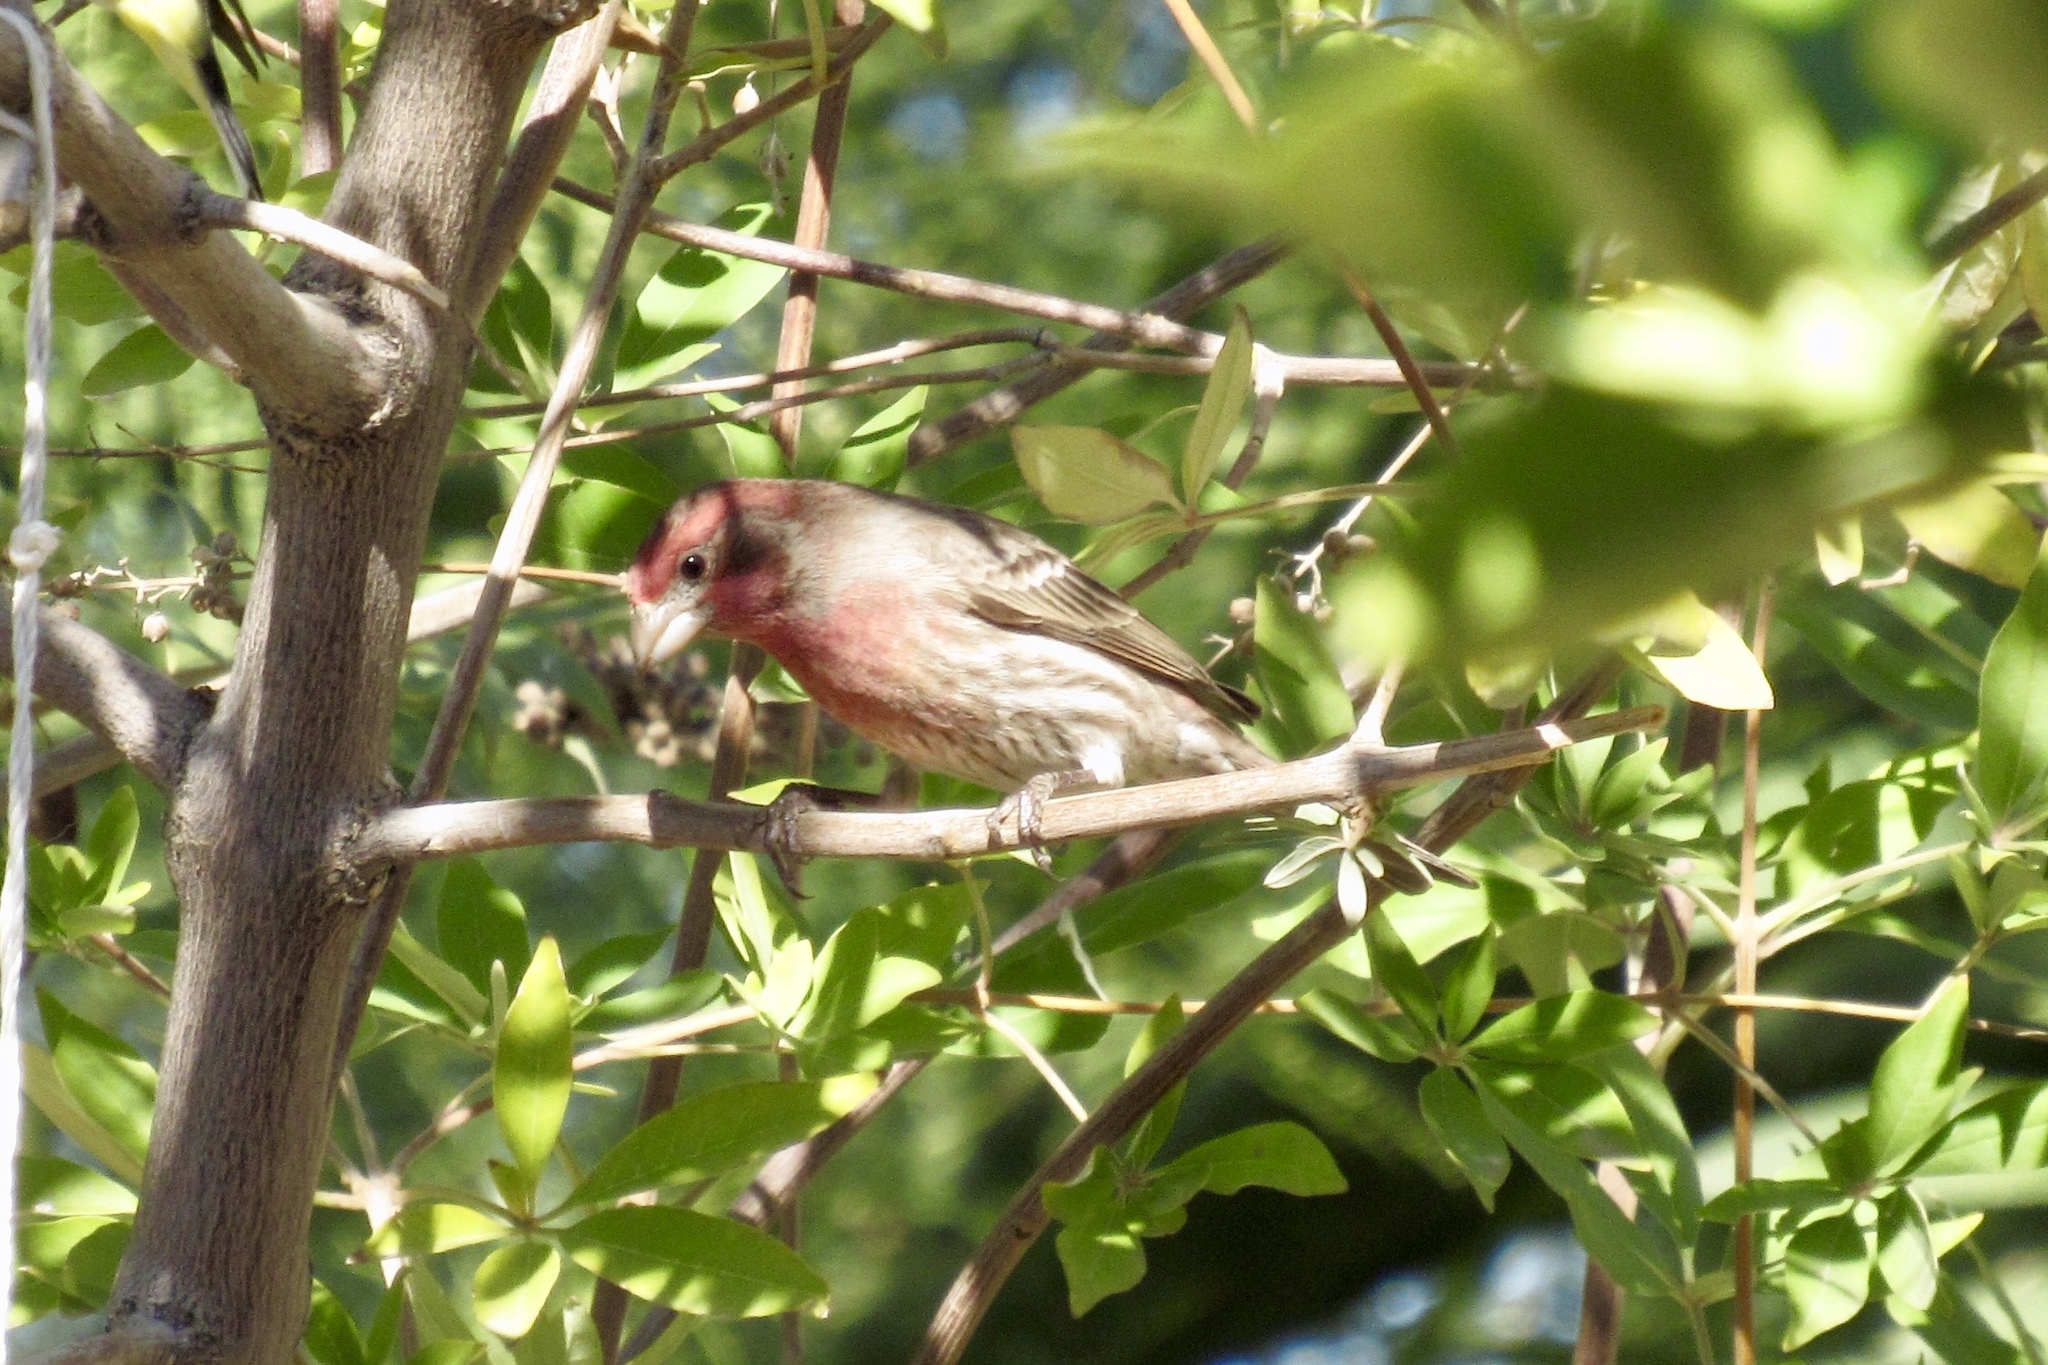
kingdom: Animalia
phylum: Chordata
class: Aves
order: Passeriformes
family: Fringillidae
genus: Haemorhous
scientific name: Haemorhous mexicanus
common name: House finch
